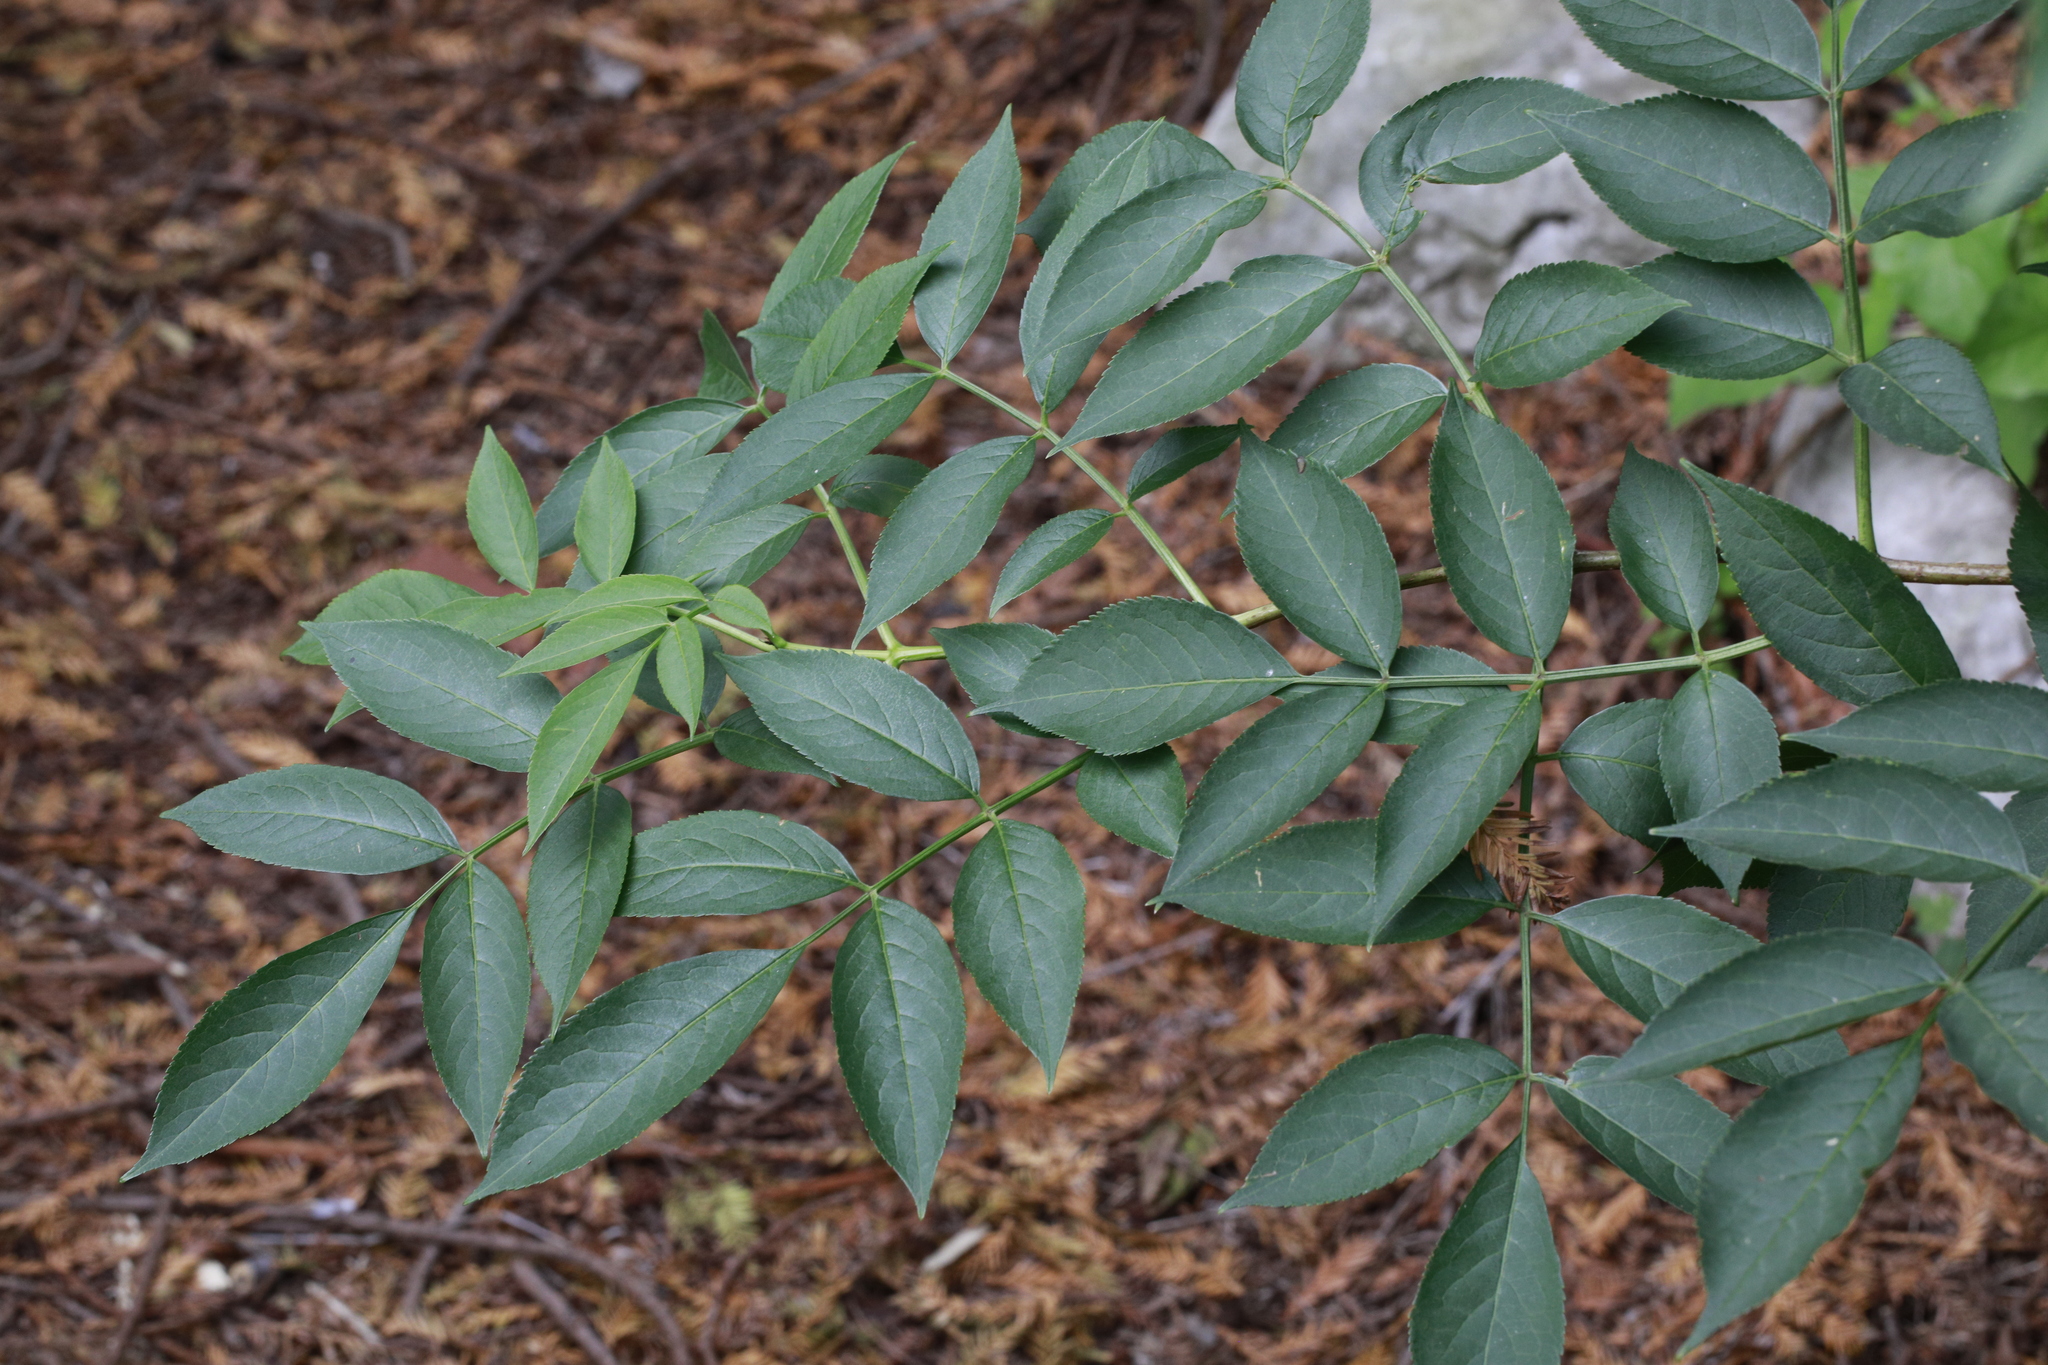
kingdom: Plantae
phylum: Tracheophyta
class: Magnoliopsida
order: Dipsacales
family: Viburnaceae
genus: Sambucus
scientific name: Sambucus nigra
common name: Elder
